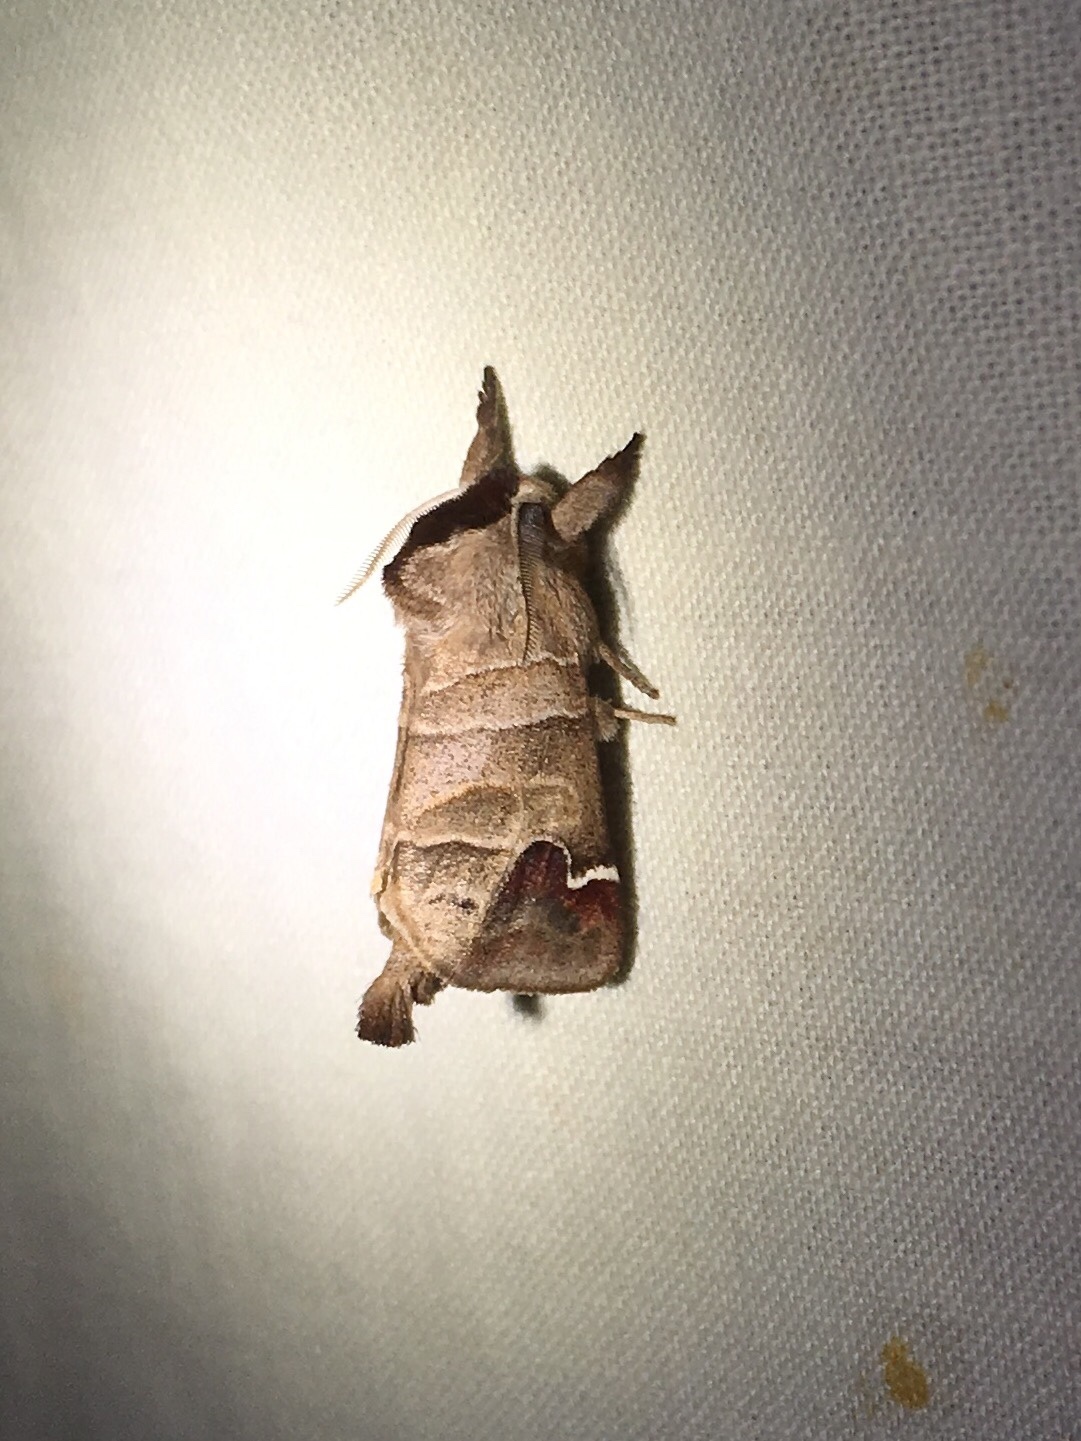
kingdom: Animalia
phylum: Arthropoda
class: Insecta
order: Lepidoptera
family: Notodontidae
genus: Clostera
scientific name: Clostera albosigma
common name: Sigmoid prominent
